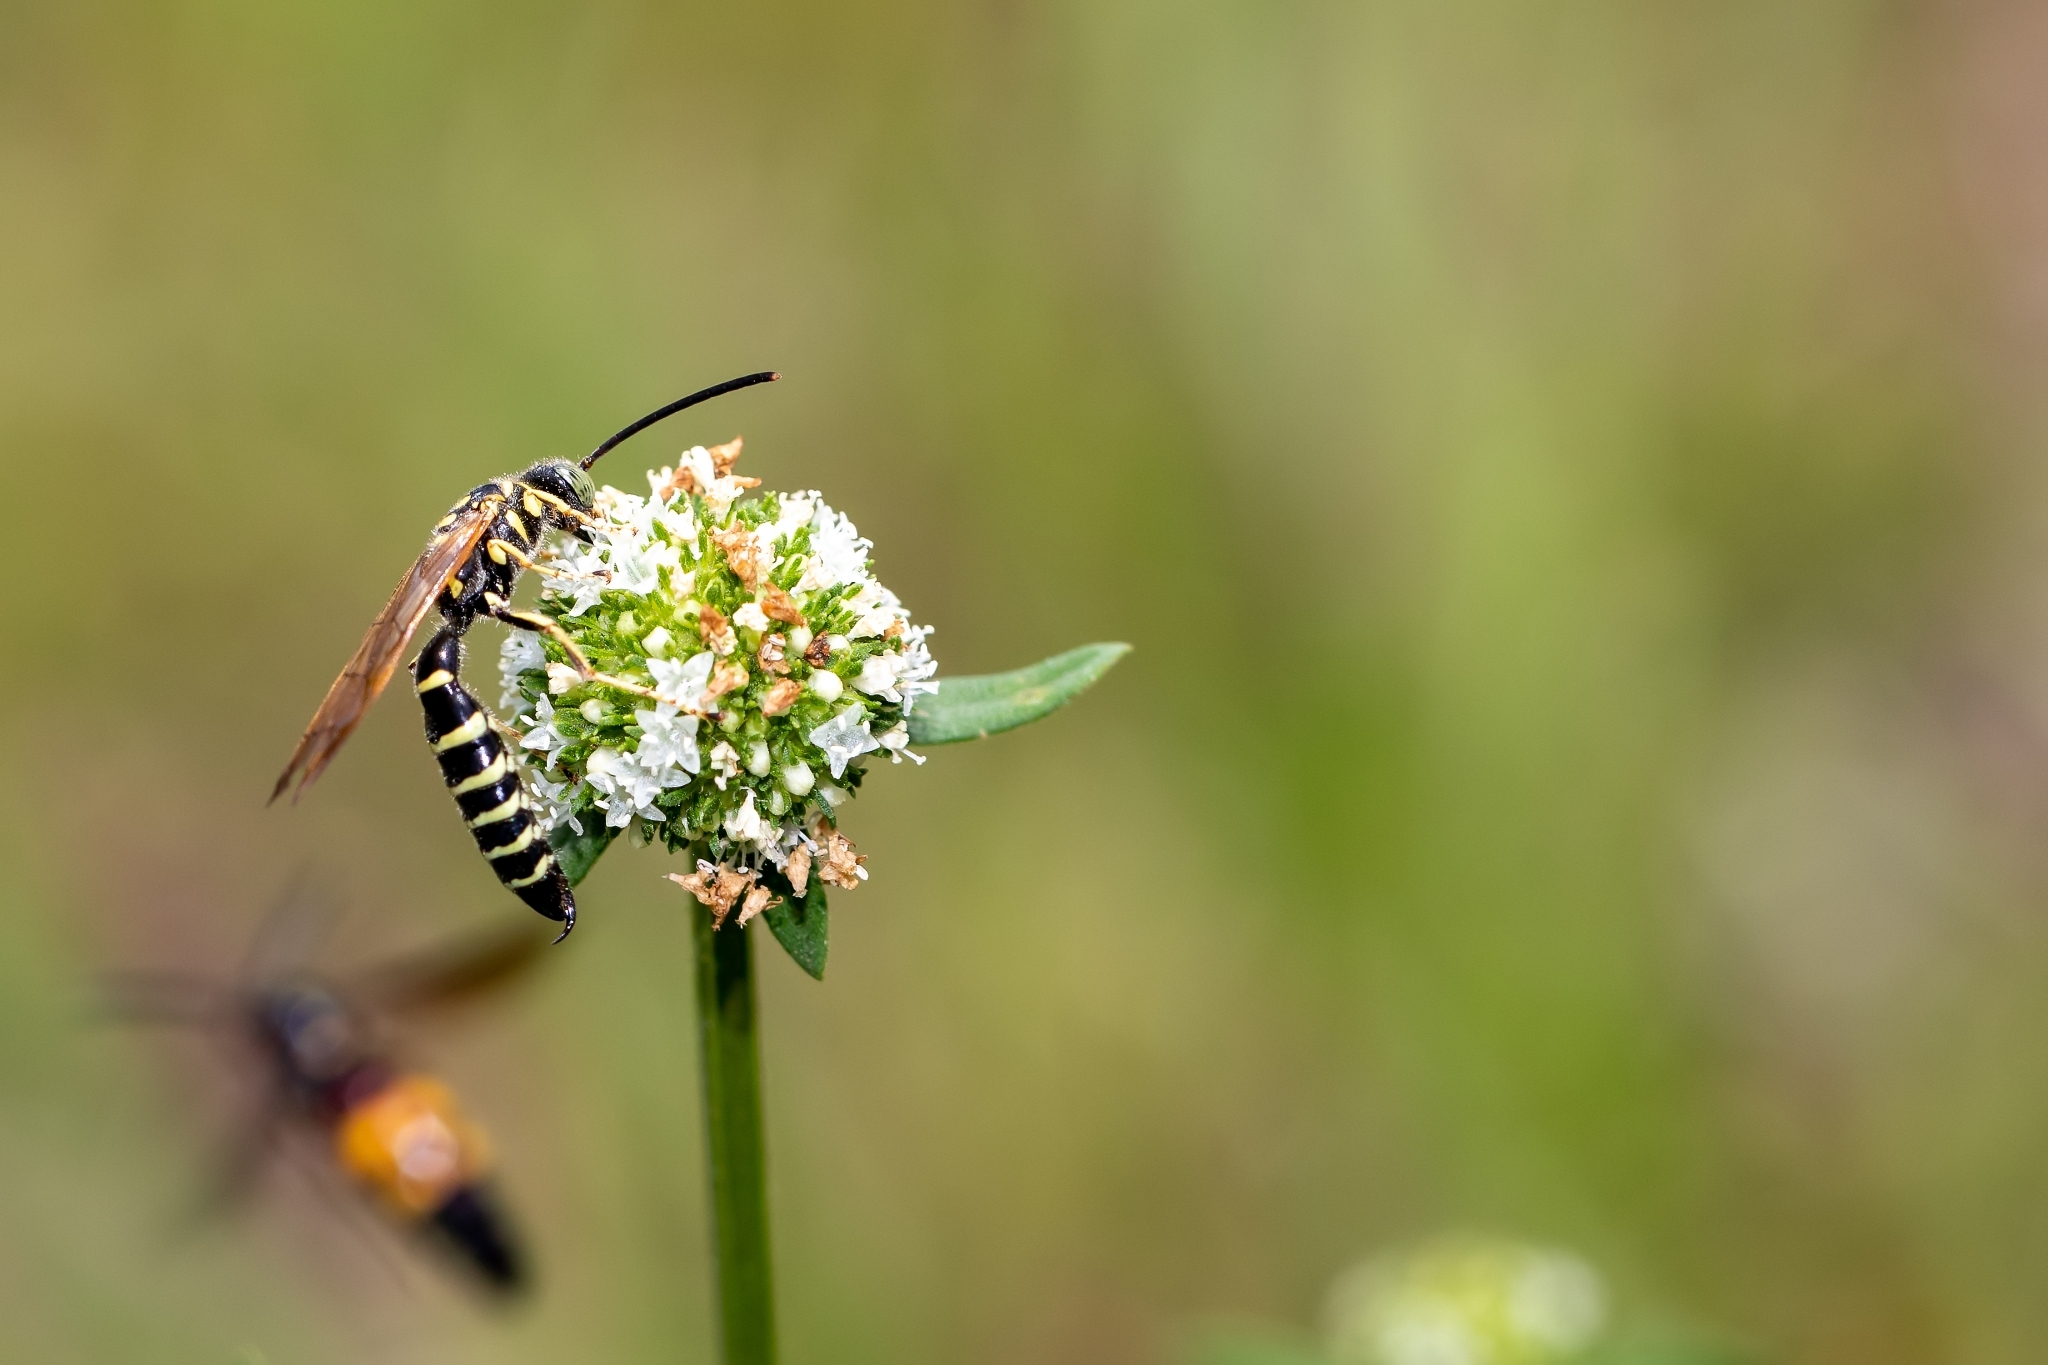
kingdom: Animalia
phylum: Arthropoda
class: Insecta
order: Hymenoptera
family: Tiphiidae
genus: Myzinum
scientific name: Myzinum
